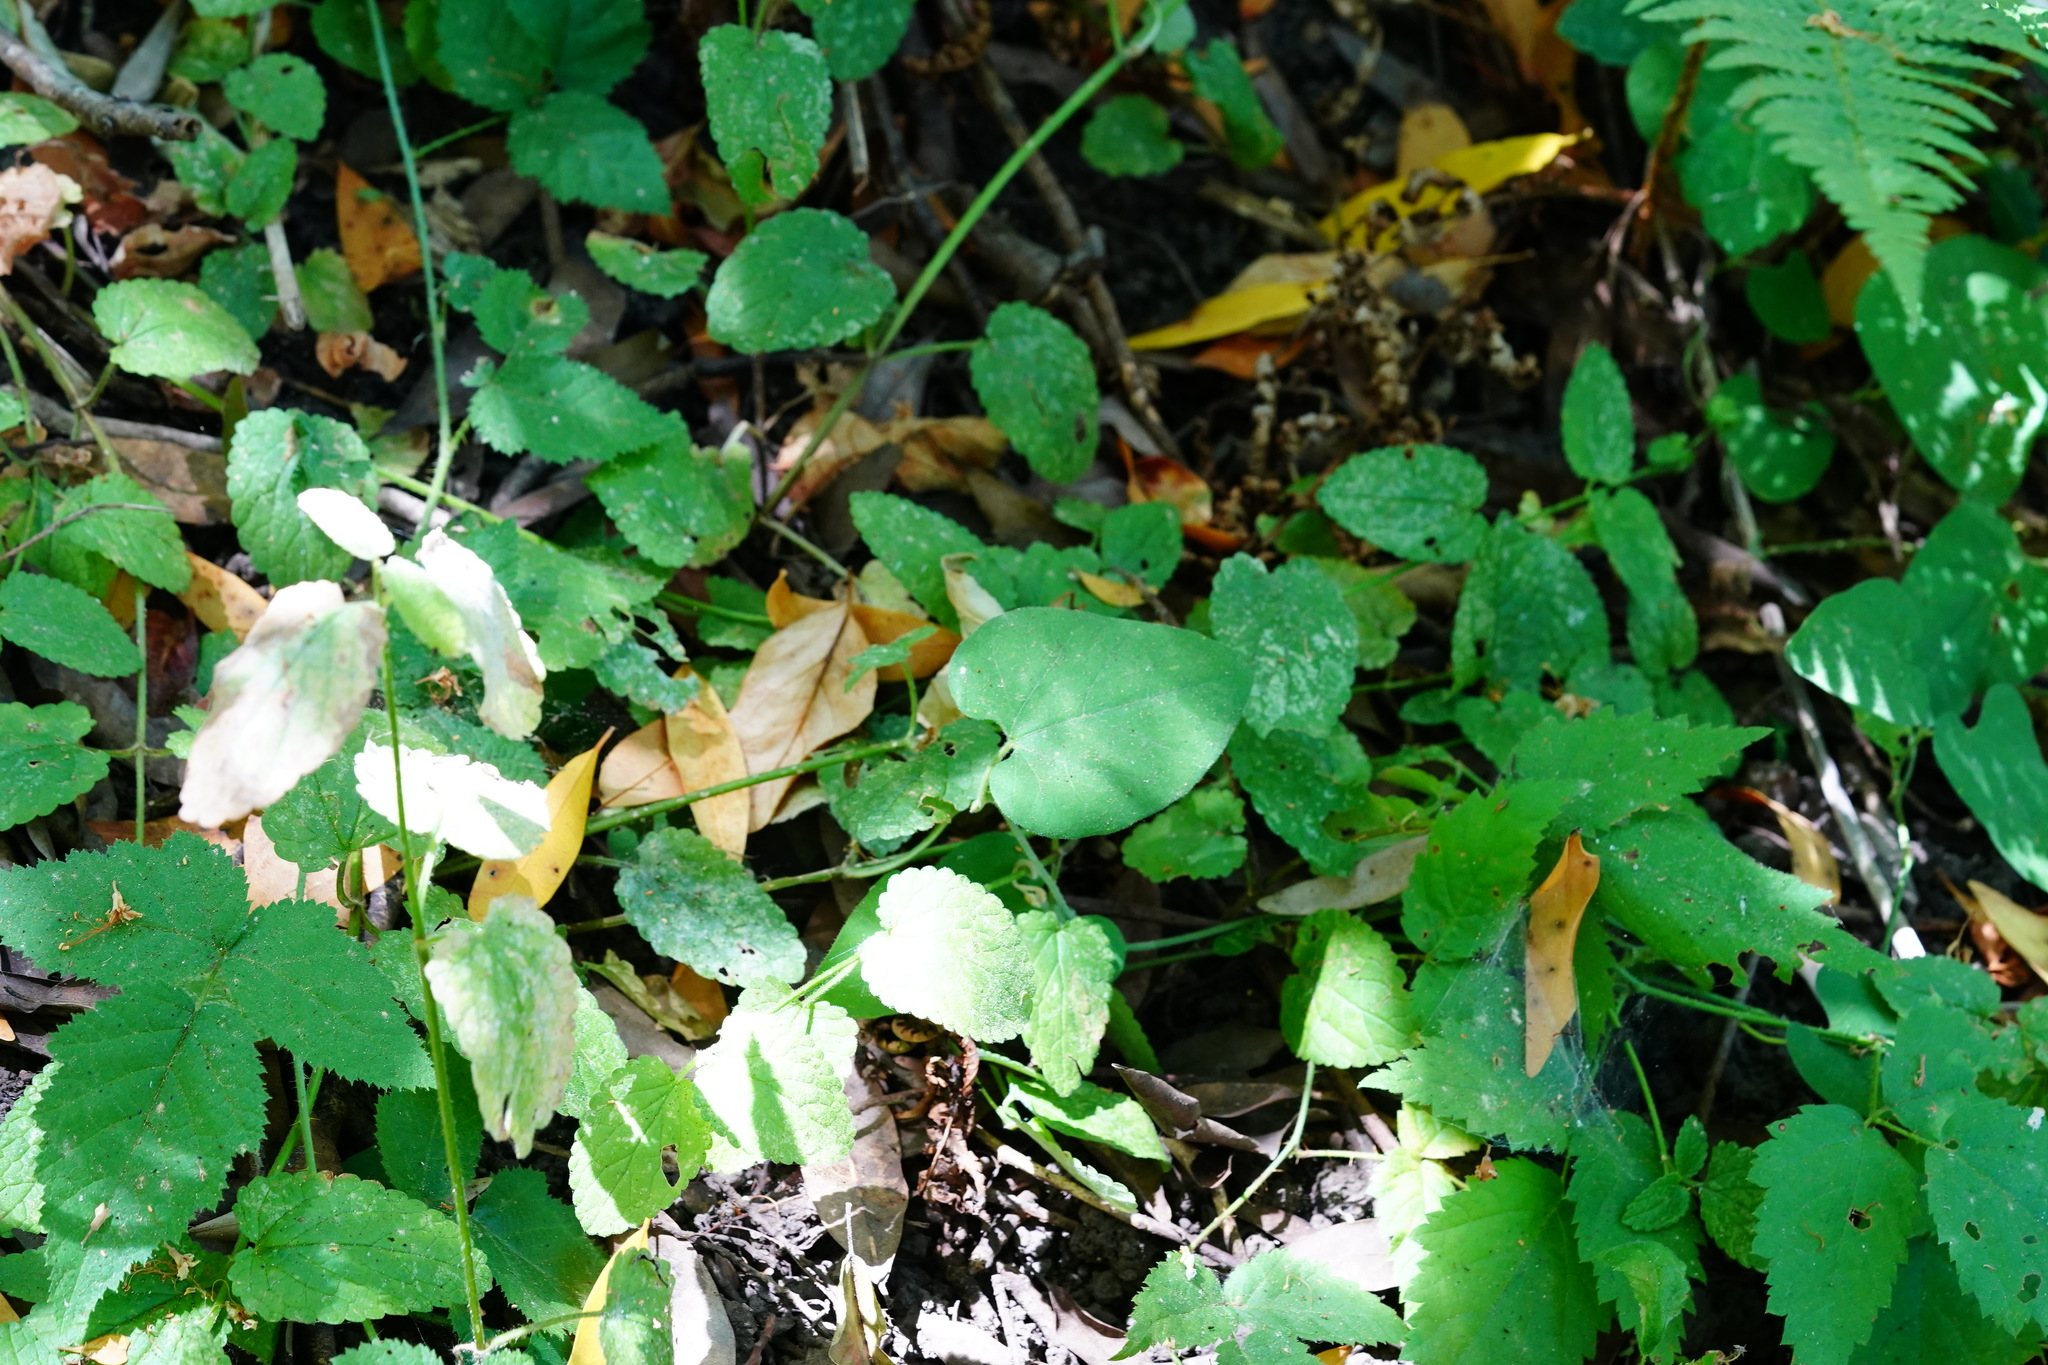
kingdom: Plantae
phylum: Tracheophyta
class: Magnoliopsida
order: Piperales
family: Aristolochiaceae
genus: Isotrema
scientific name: Isotrema californicum
